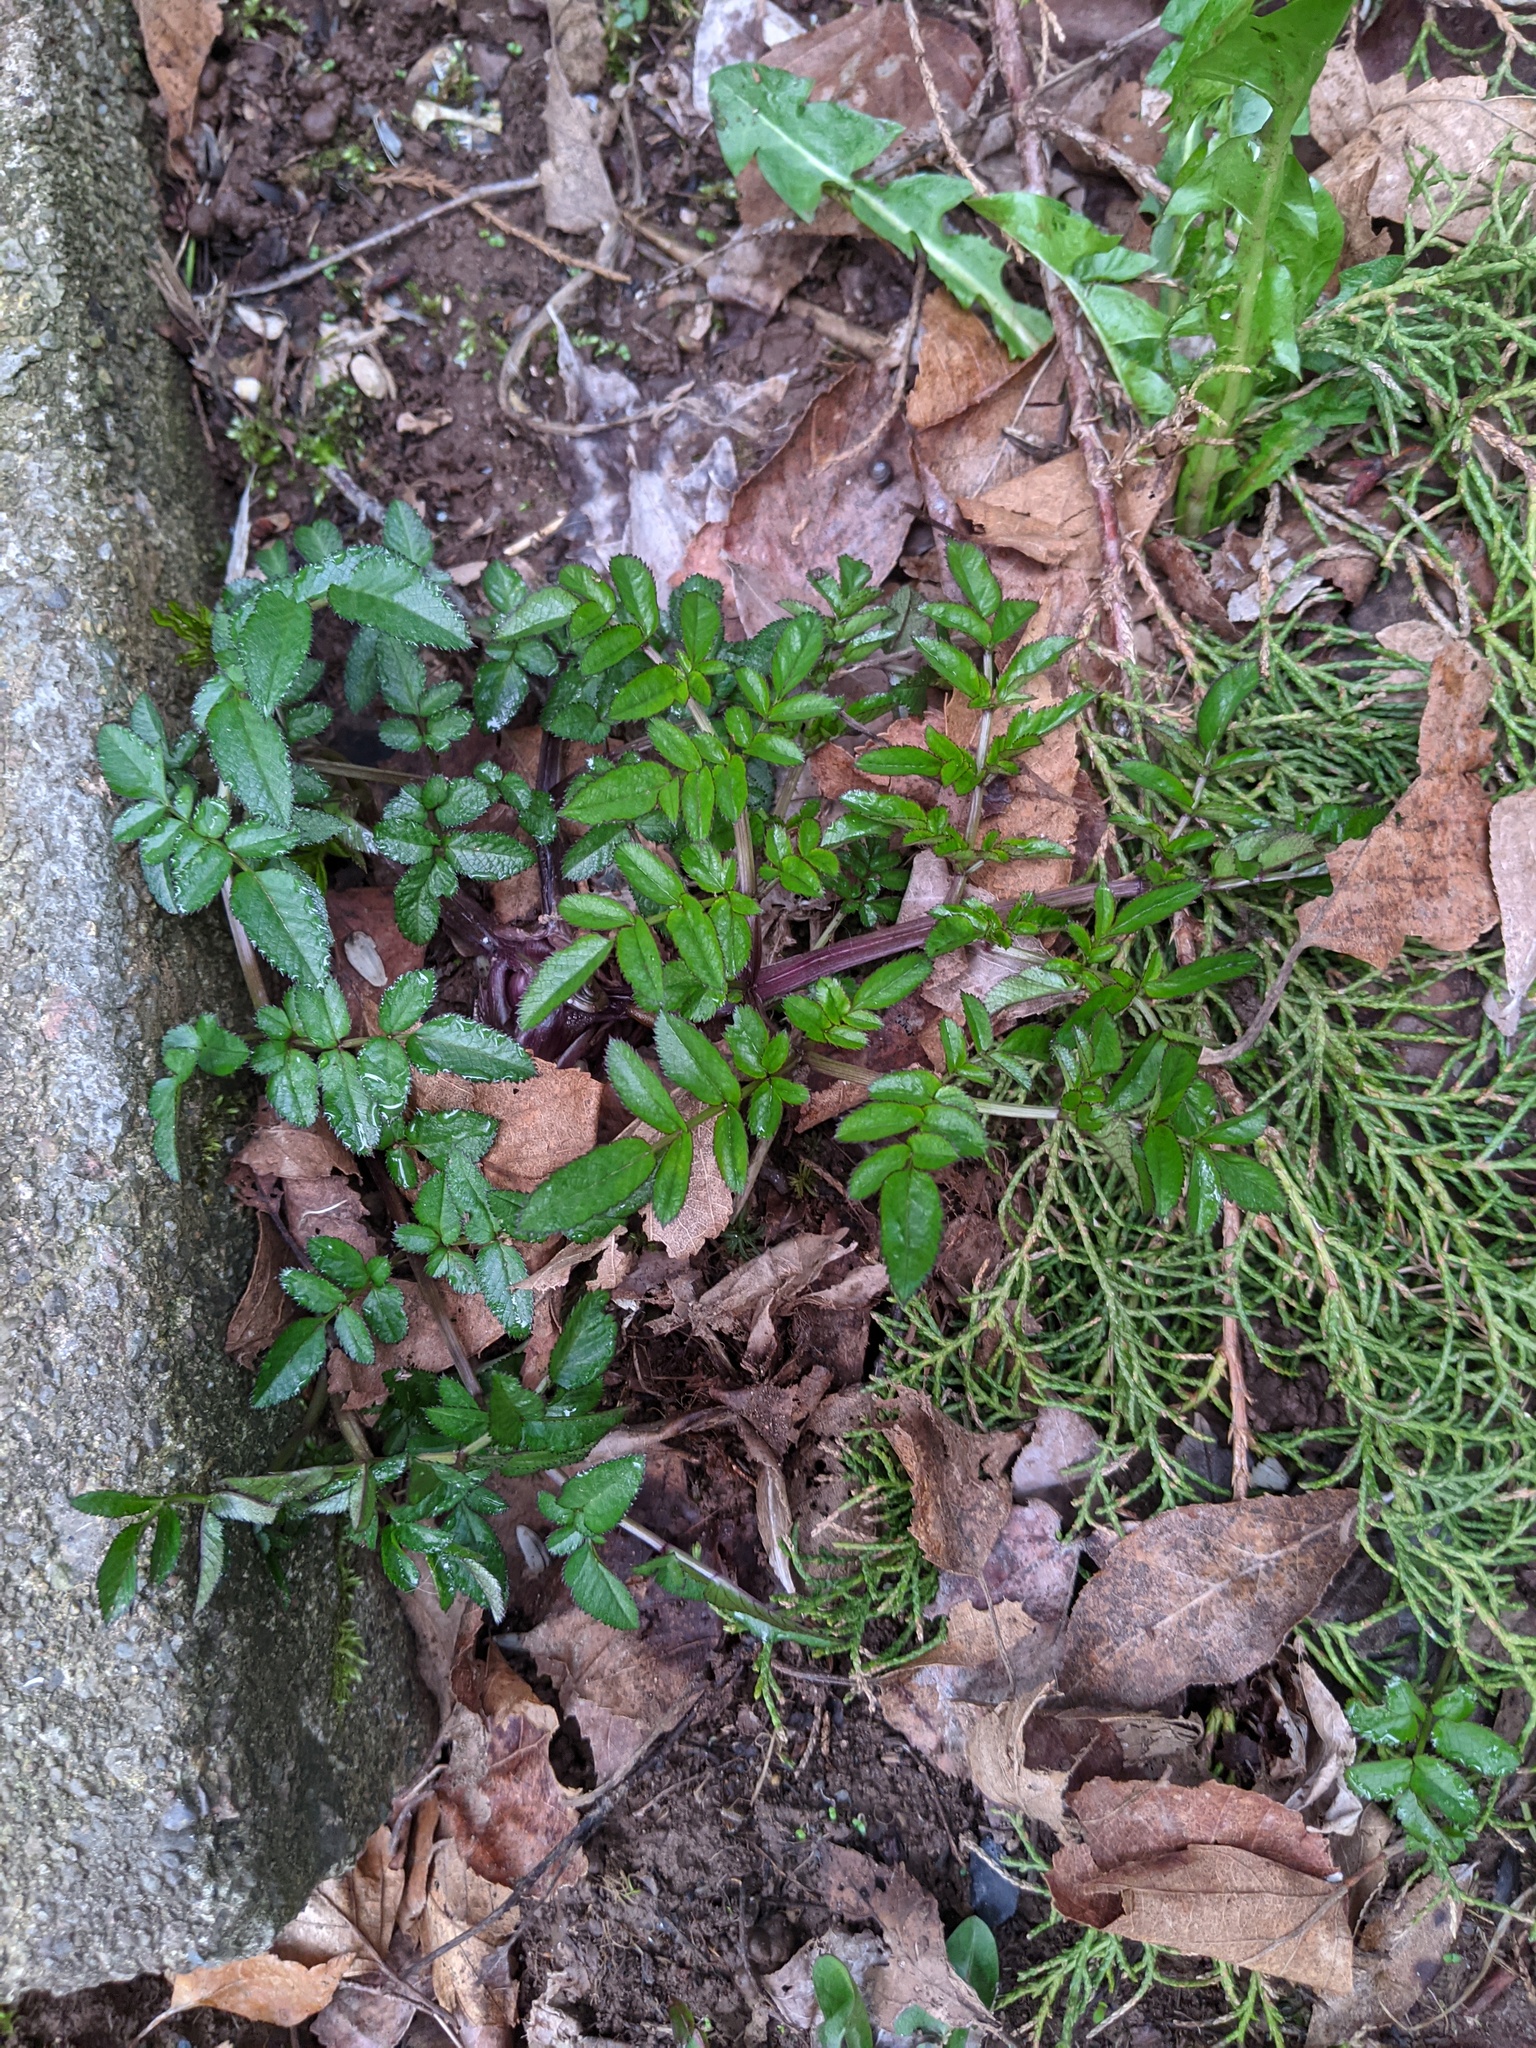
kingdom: Plantae
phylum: Tracheophyta
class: Magnoliopsida
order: Apiales
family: Apiaceae
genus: Angelica
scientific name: Angelica sylvestris
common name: Wild angelica
